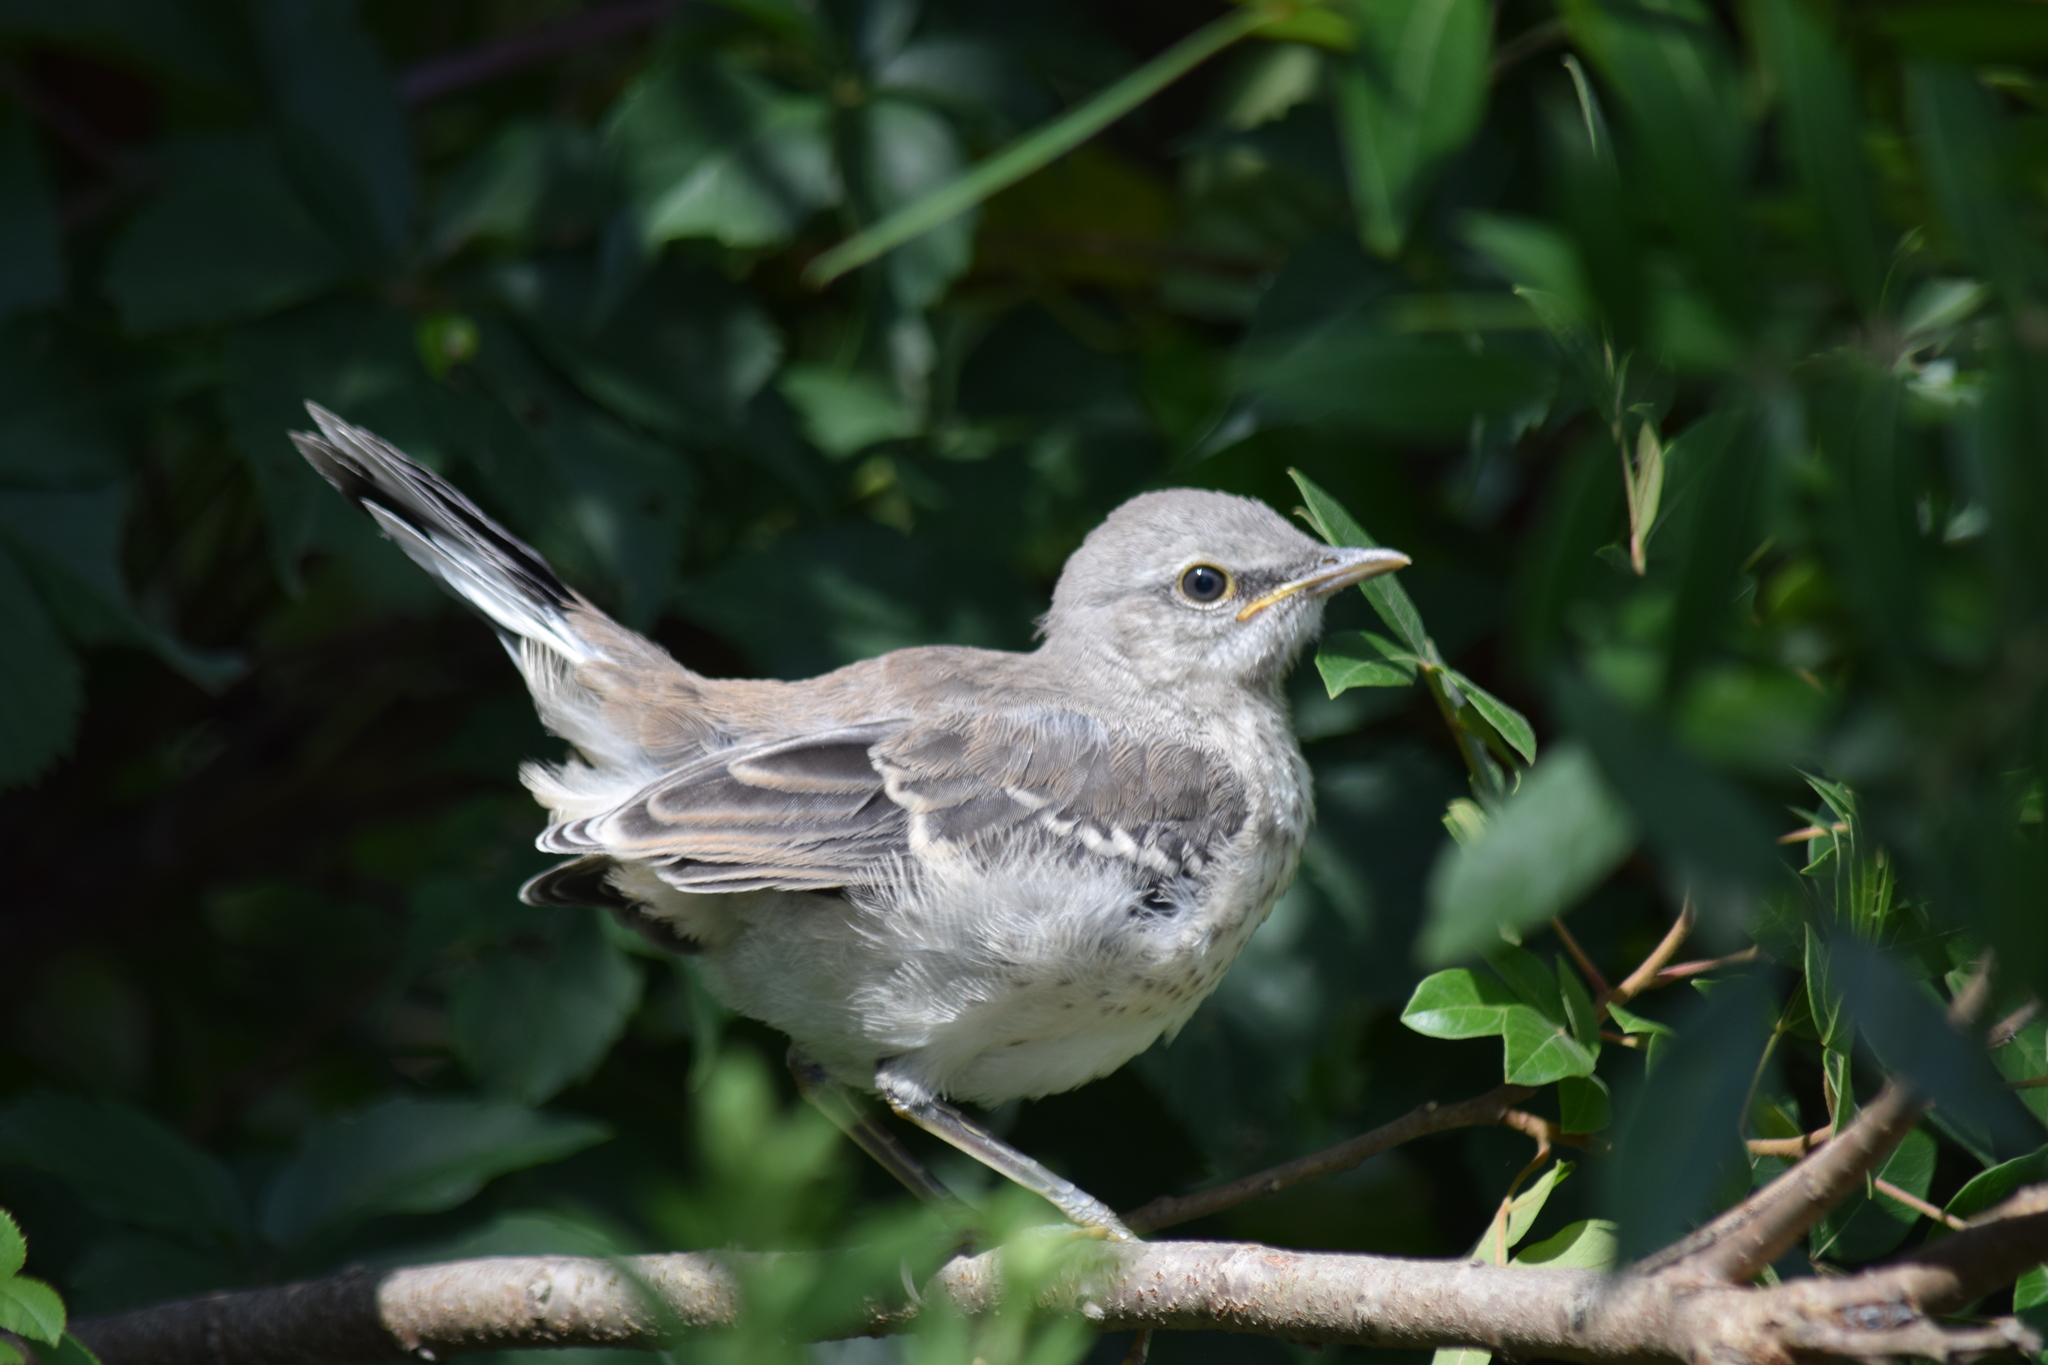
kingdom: Animalia
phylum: Chordata
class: Aves
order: Passeriformes
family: Mimidae
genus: Mimus
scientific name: Mimus polyglottos
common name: Northern mockingbird
